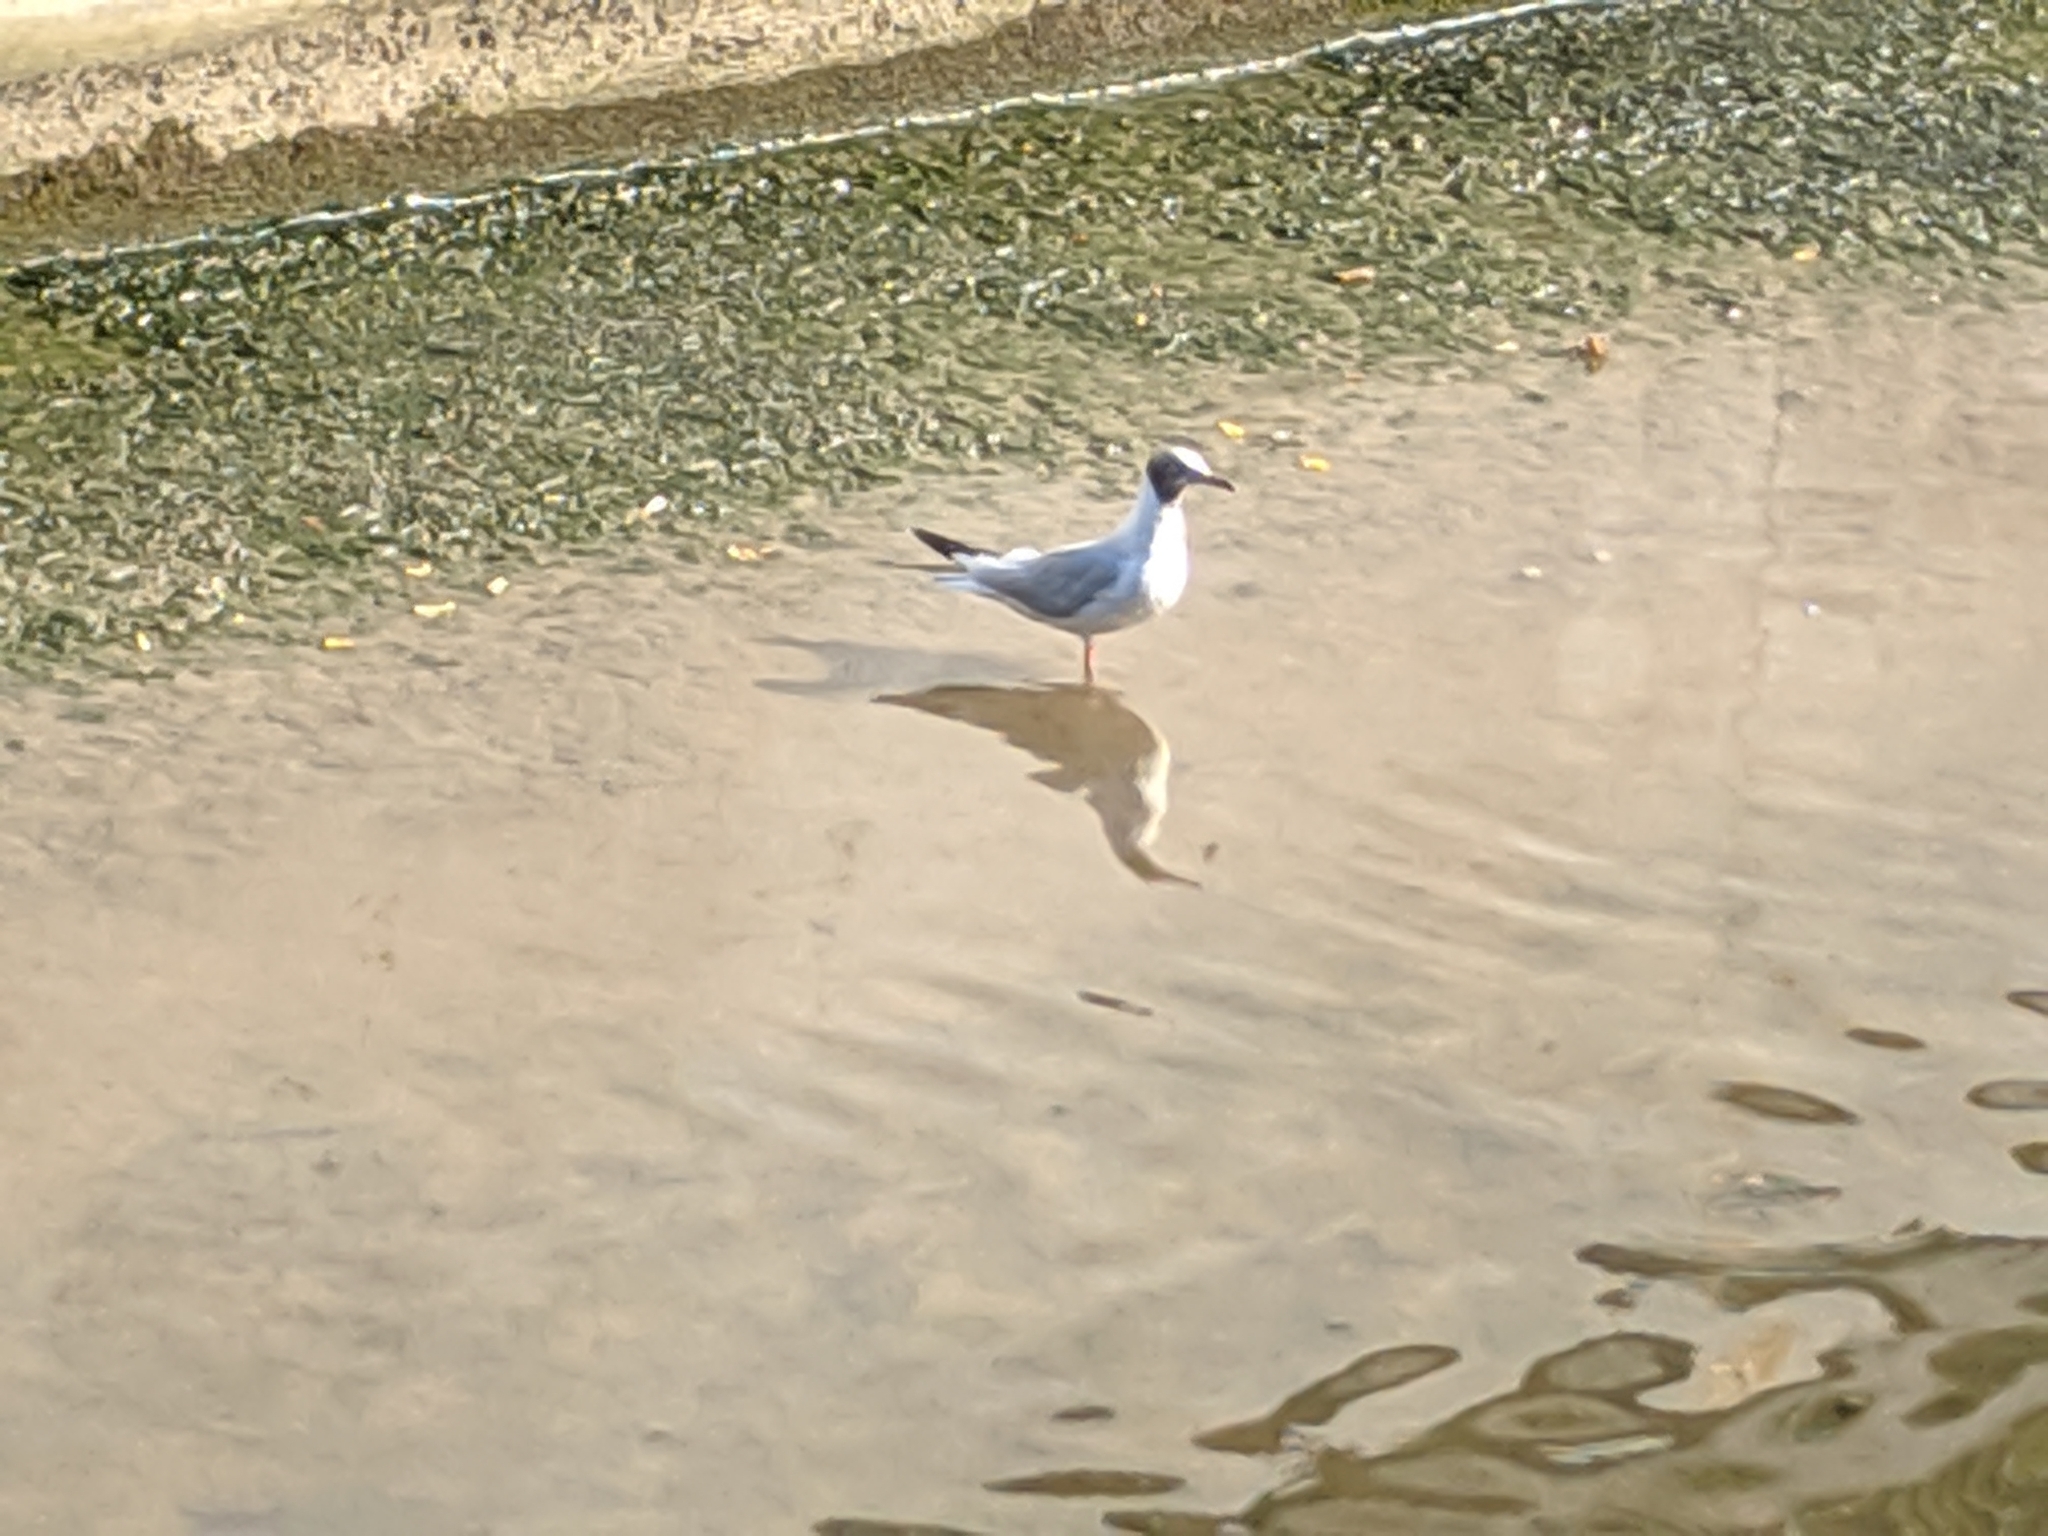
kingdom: Animalia
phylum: Chordata
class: Aves
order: Charadriiformes
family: Laridae
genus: Chroicocephalus
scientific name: Chroicocephalus ridibundus
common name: Black-headed gull
